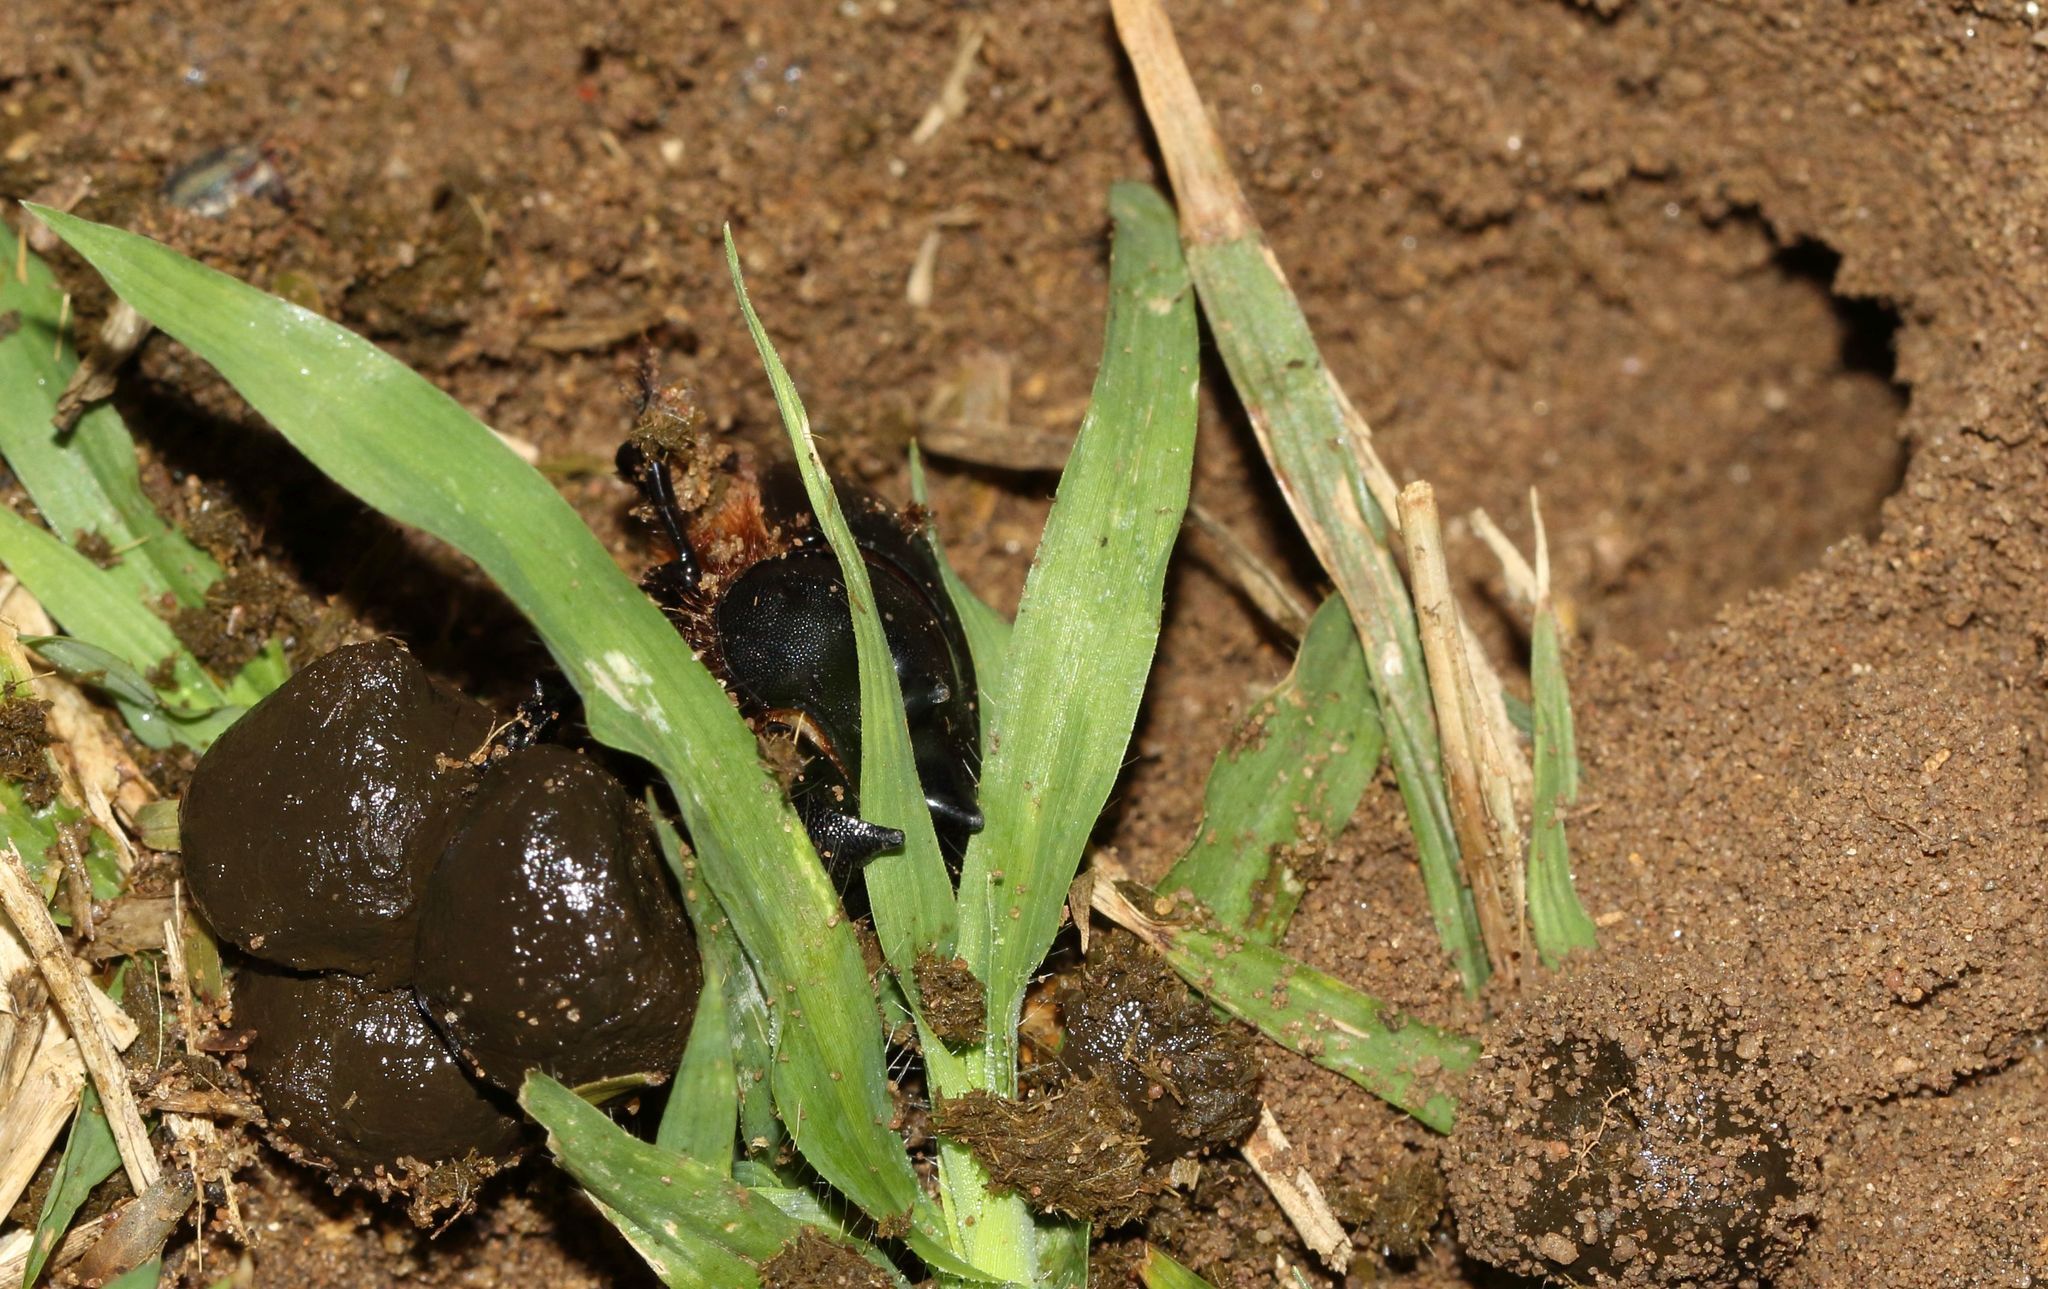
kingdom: Animalia
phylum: Arthropoda
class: Insecta
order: Coleoptera
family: Scarabaeidae
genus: Catharsius
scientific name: Catharsius tricornutus
